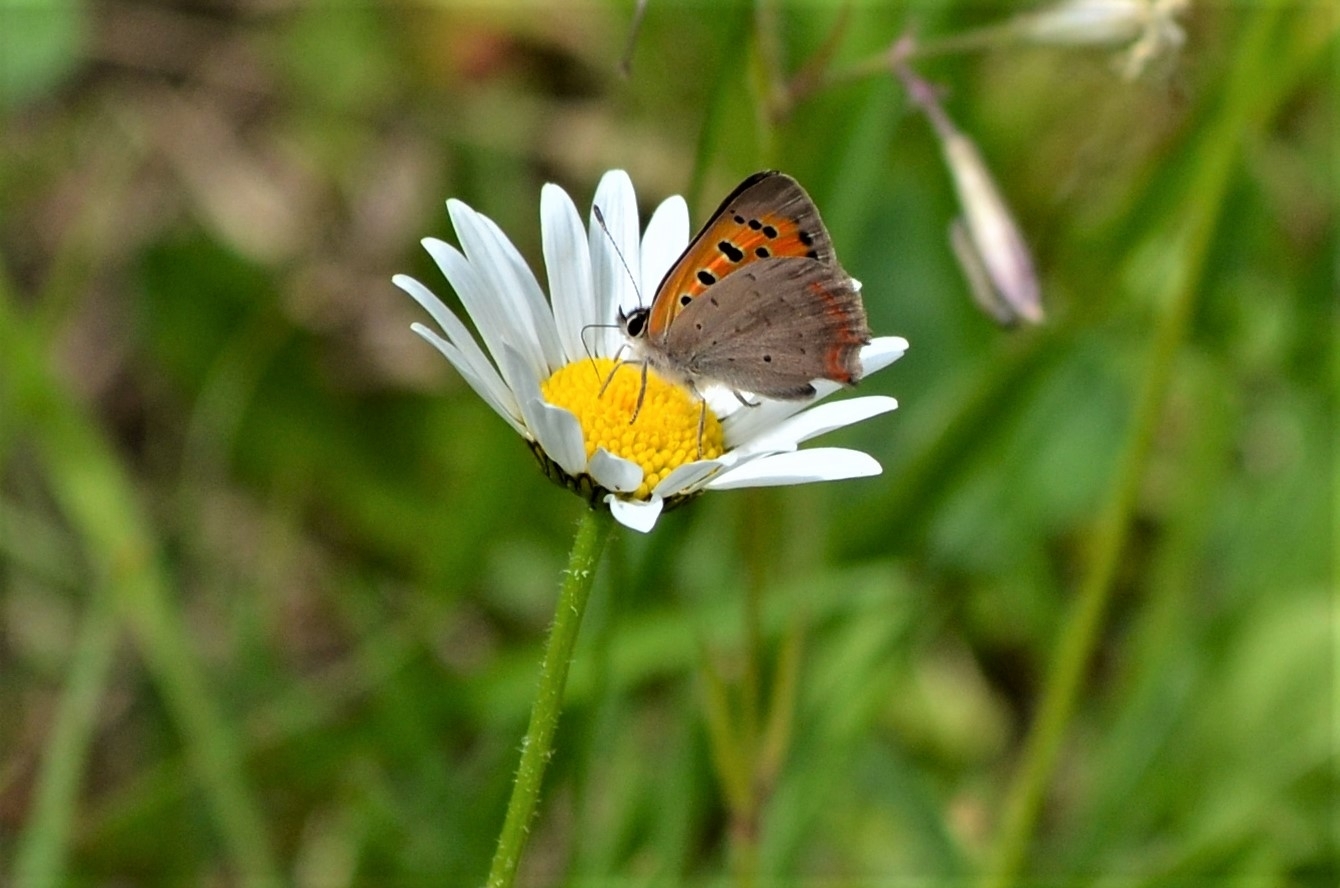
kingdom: Animalia
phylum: Arthropoda
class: Insecta
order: Lepidoptera
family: Lycaenidae
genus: Lycaena
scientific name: Lycaena phlaeas
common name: Small copper
